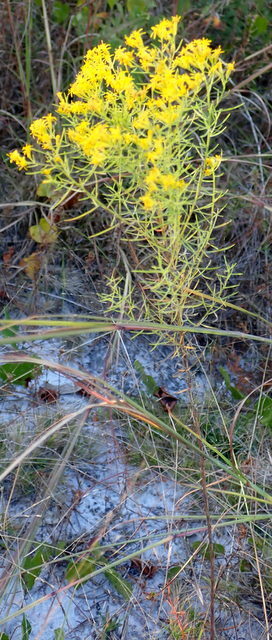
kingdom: Plantae
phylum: Tracheophyta
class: Magnoliopsida
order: Asterales
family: Asteraceae
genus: Euthamia
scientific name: Euthamia caroliniana
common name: Coastal plain goldentop
